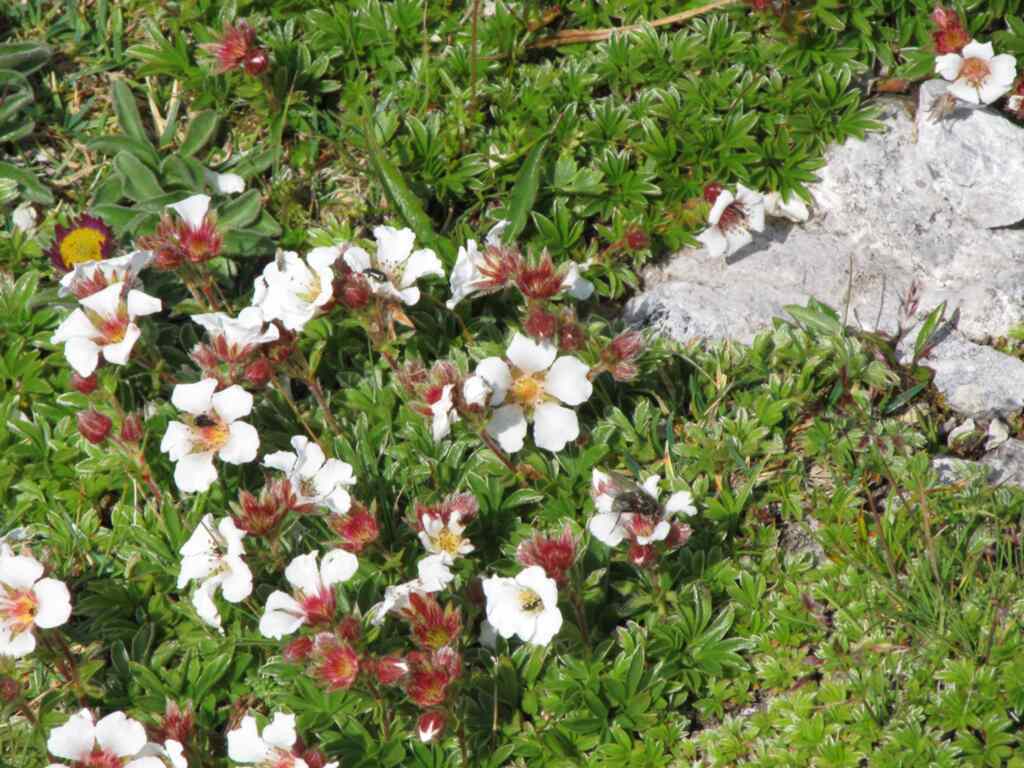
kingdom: Plantae
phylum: Tracheophyta
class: Magnoliopsida
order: Rosales
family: Rosaceae
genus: Potentilla
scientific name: Potentilla clusiana
